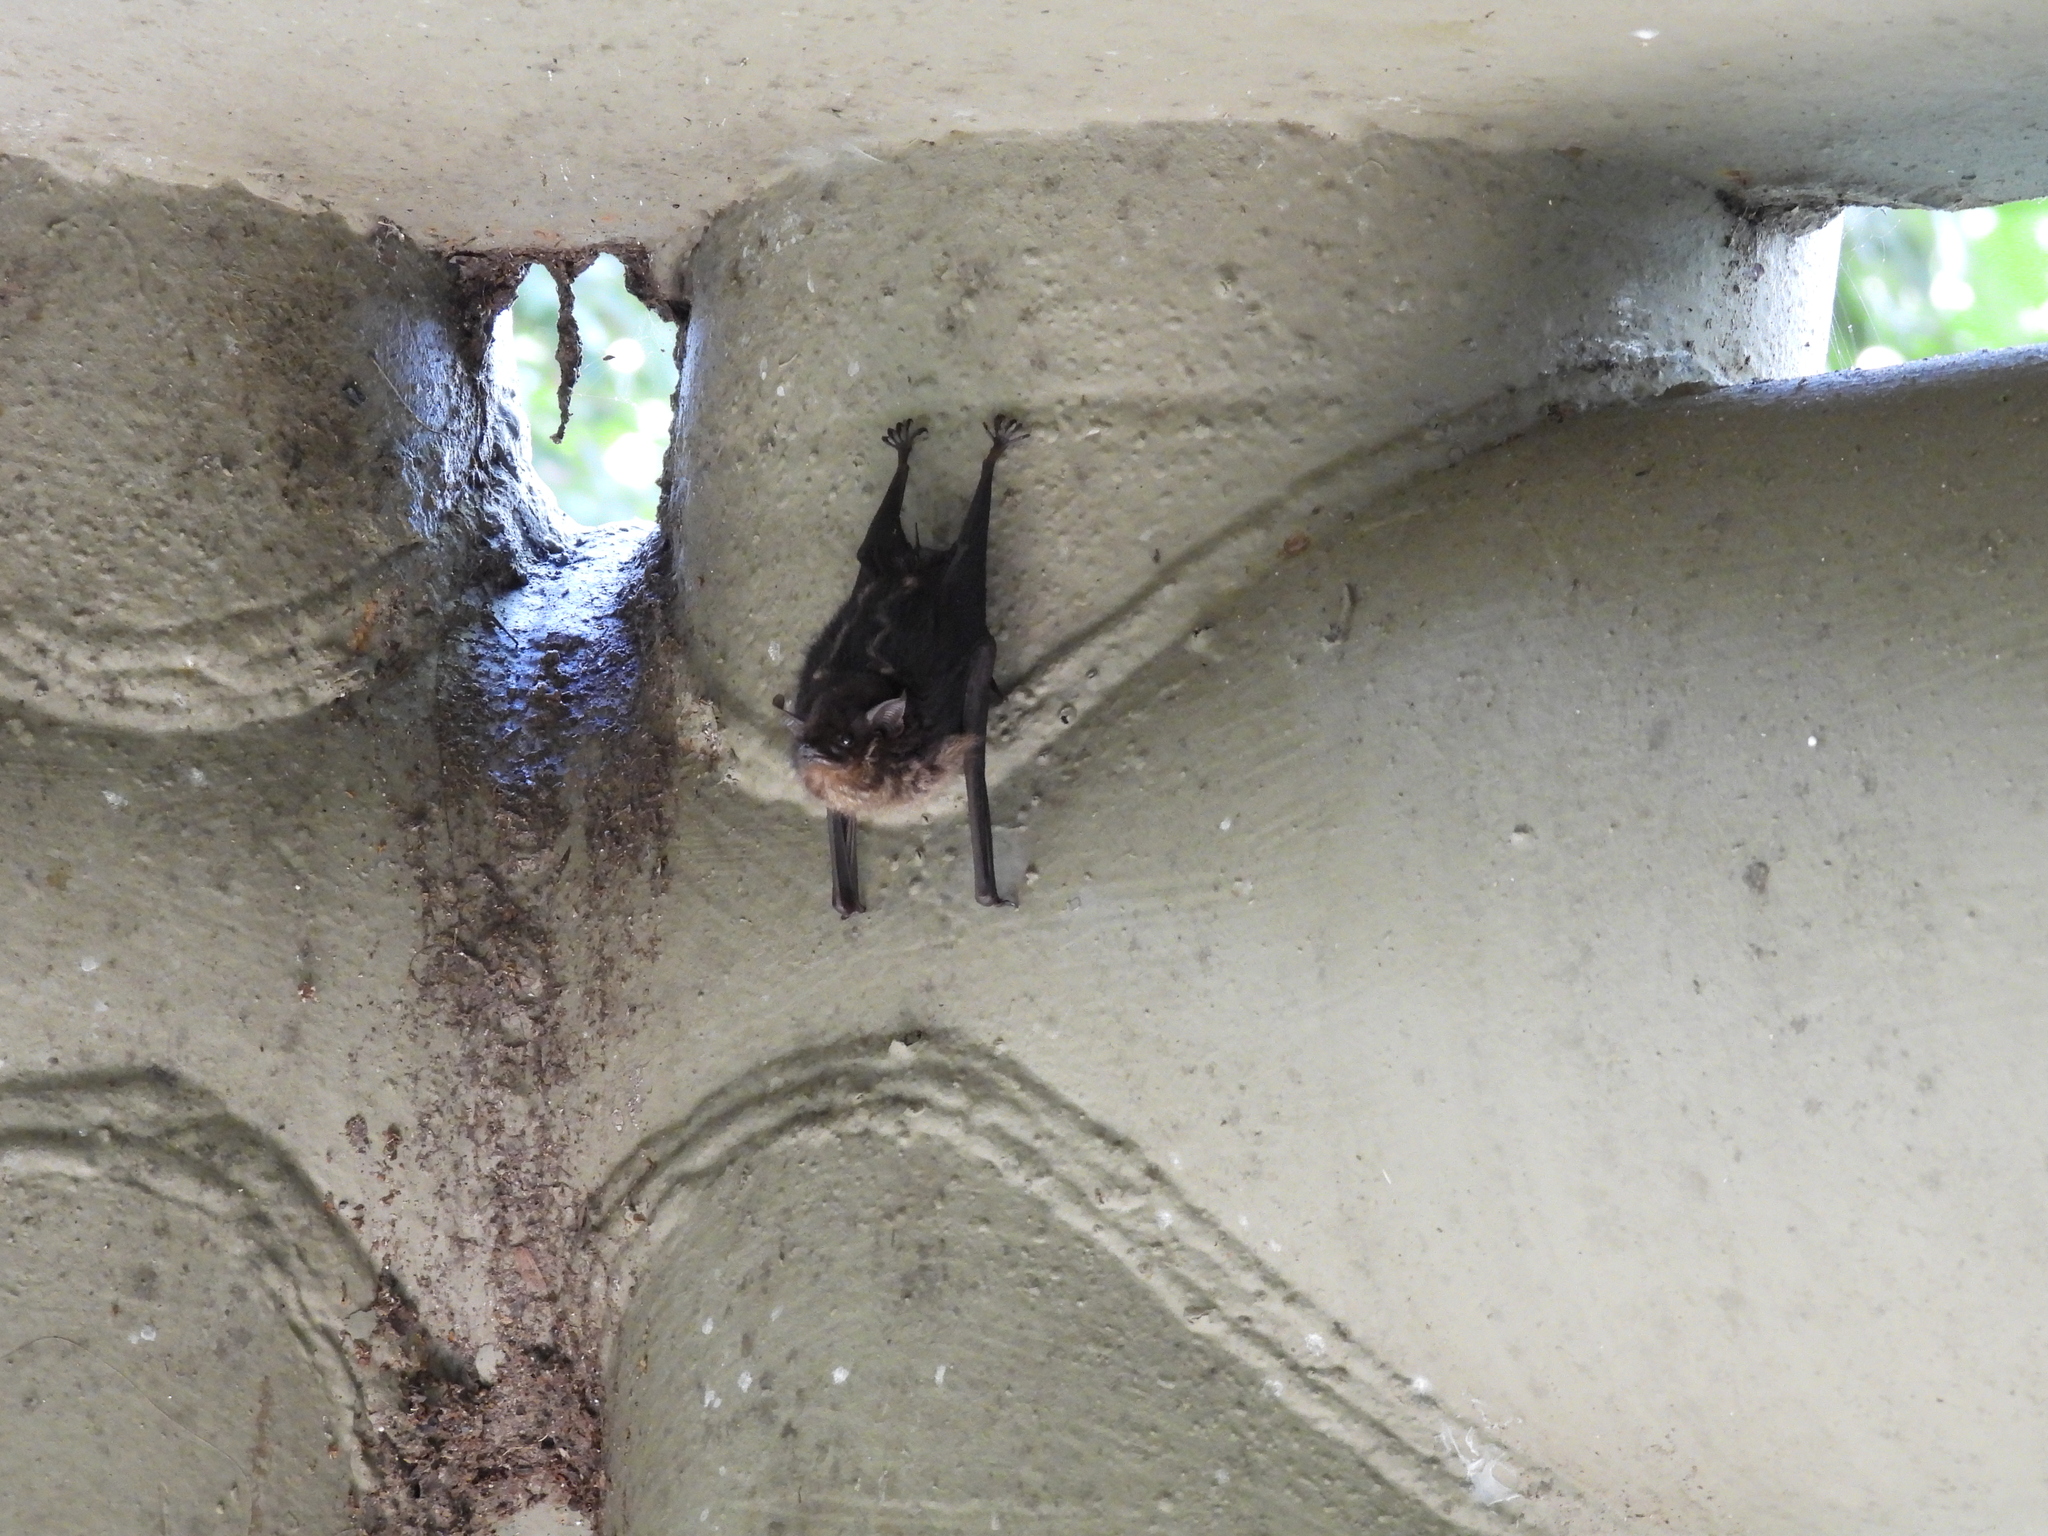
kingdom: Animalia
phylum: Chordata
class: Mammalia
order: Chiroptera
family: Emballonuridae
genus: Saccopteryx
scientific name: Saccopteryx bilineata
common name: Greater sac-winged bat
